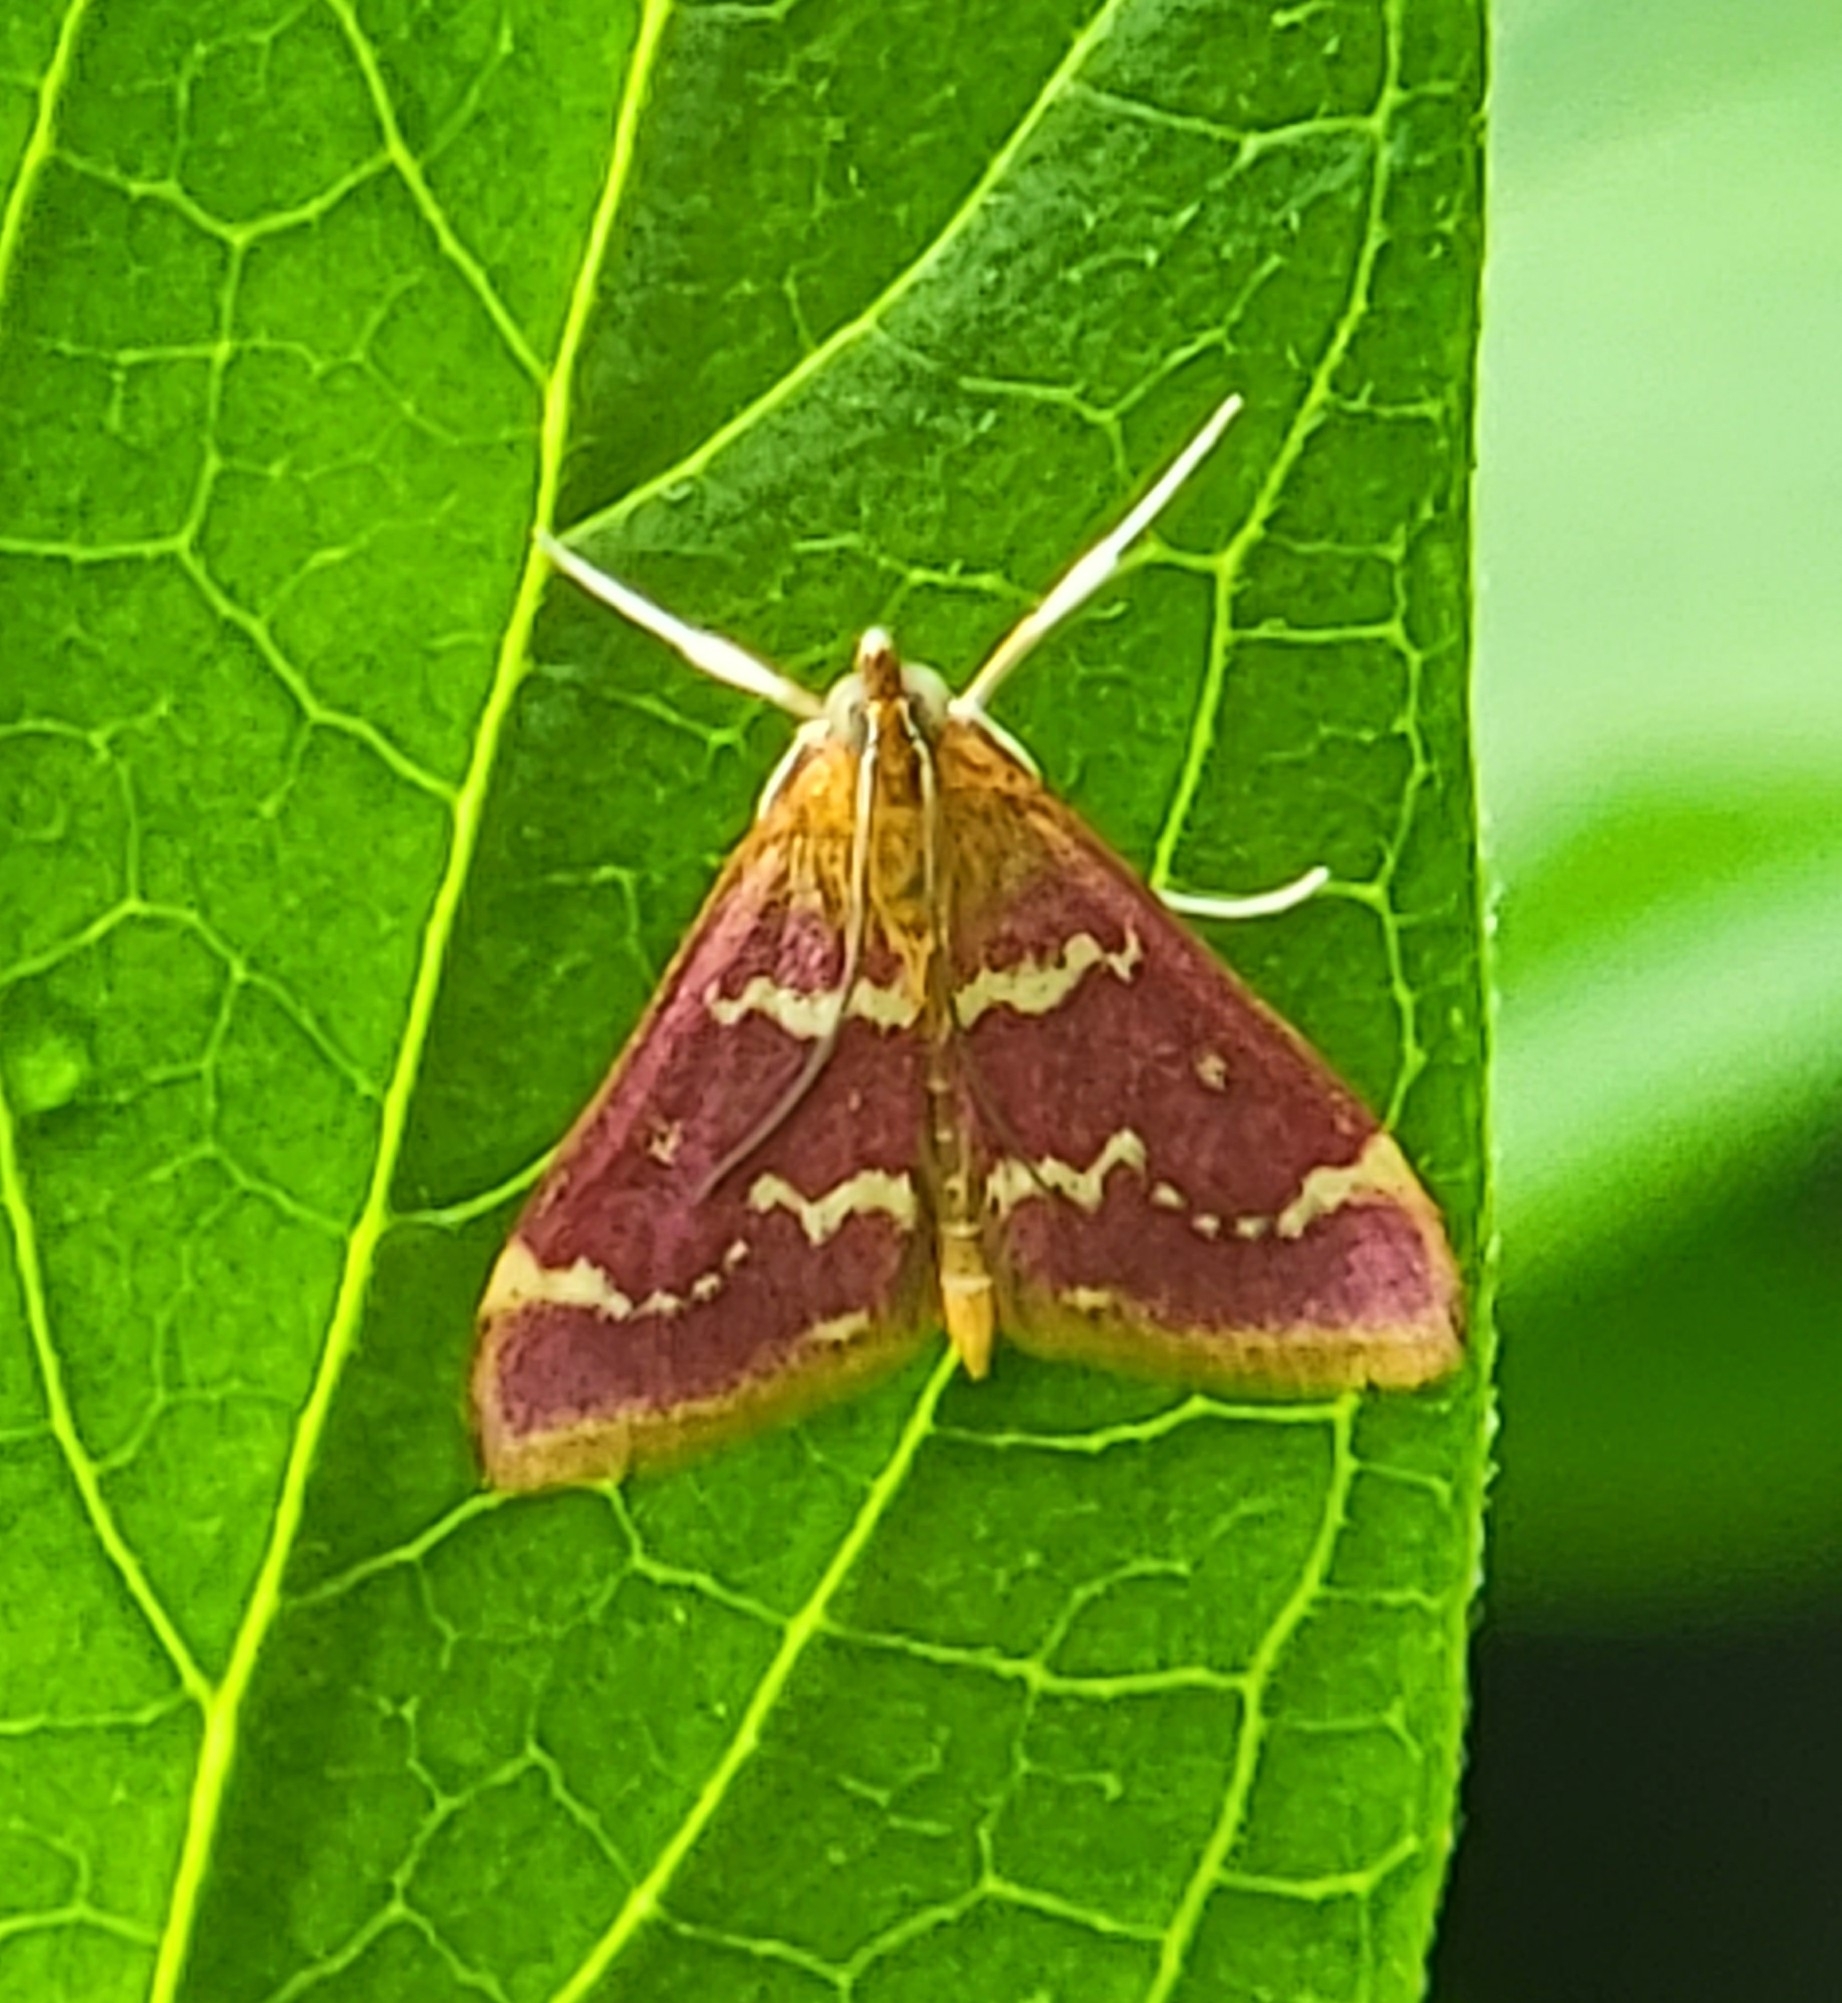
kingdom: Animalia
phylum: Arthropoda
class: Insecta
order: Lepidoptera
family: Crambidae
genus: Pyrausta
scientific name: Pyrausta signatalis
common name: Raspberry pyrausta moth
